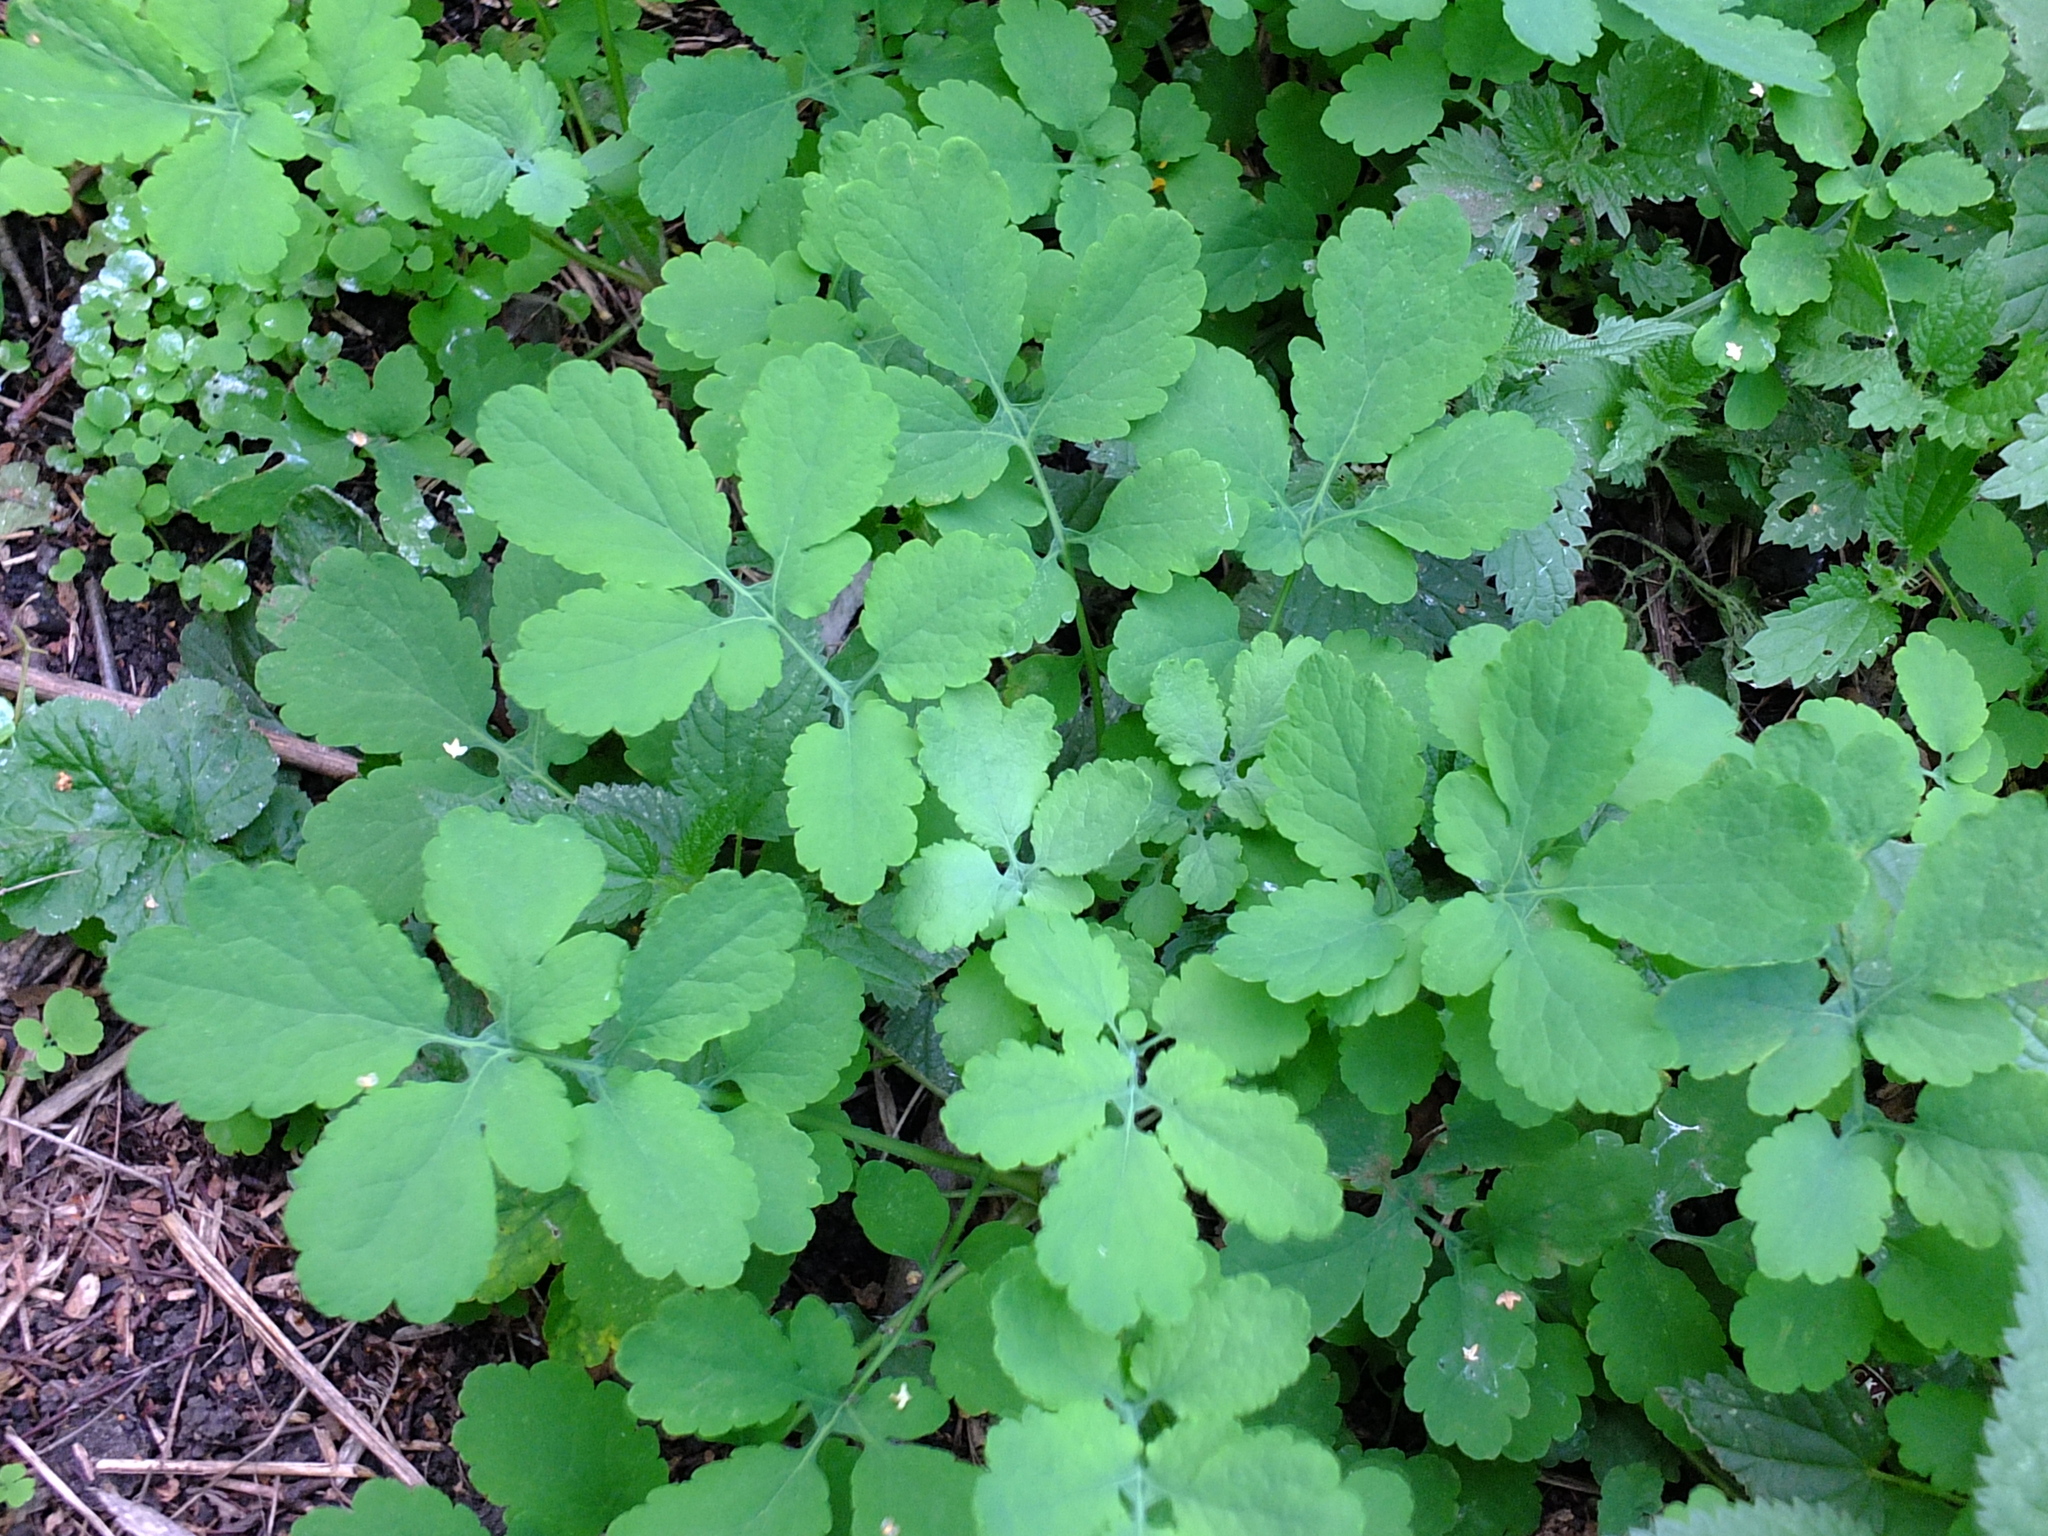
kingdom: Plantae
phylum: Tracheophyta
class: Magnoliopsida
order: Ranunculales
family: Papaveraceae
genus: Chelidonium
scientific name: Chelidonium majus
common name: Greater celandine
